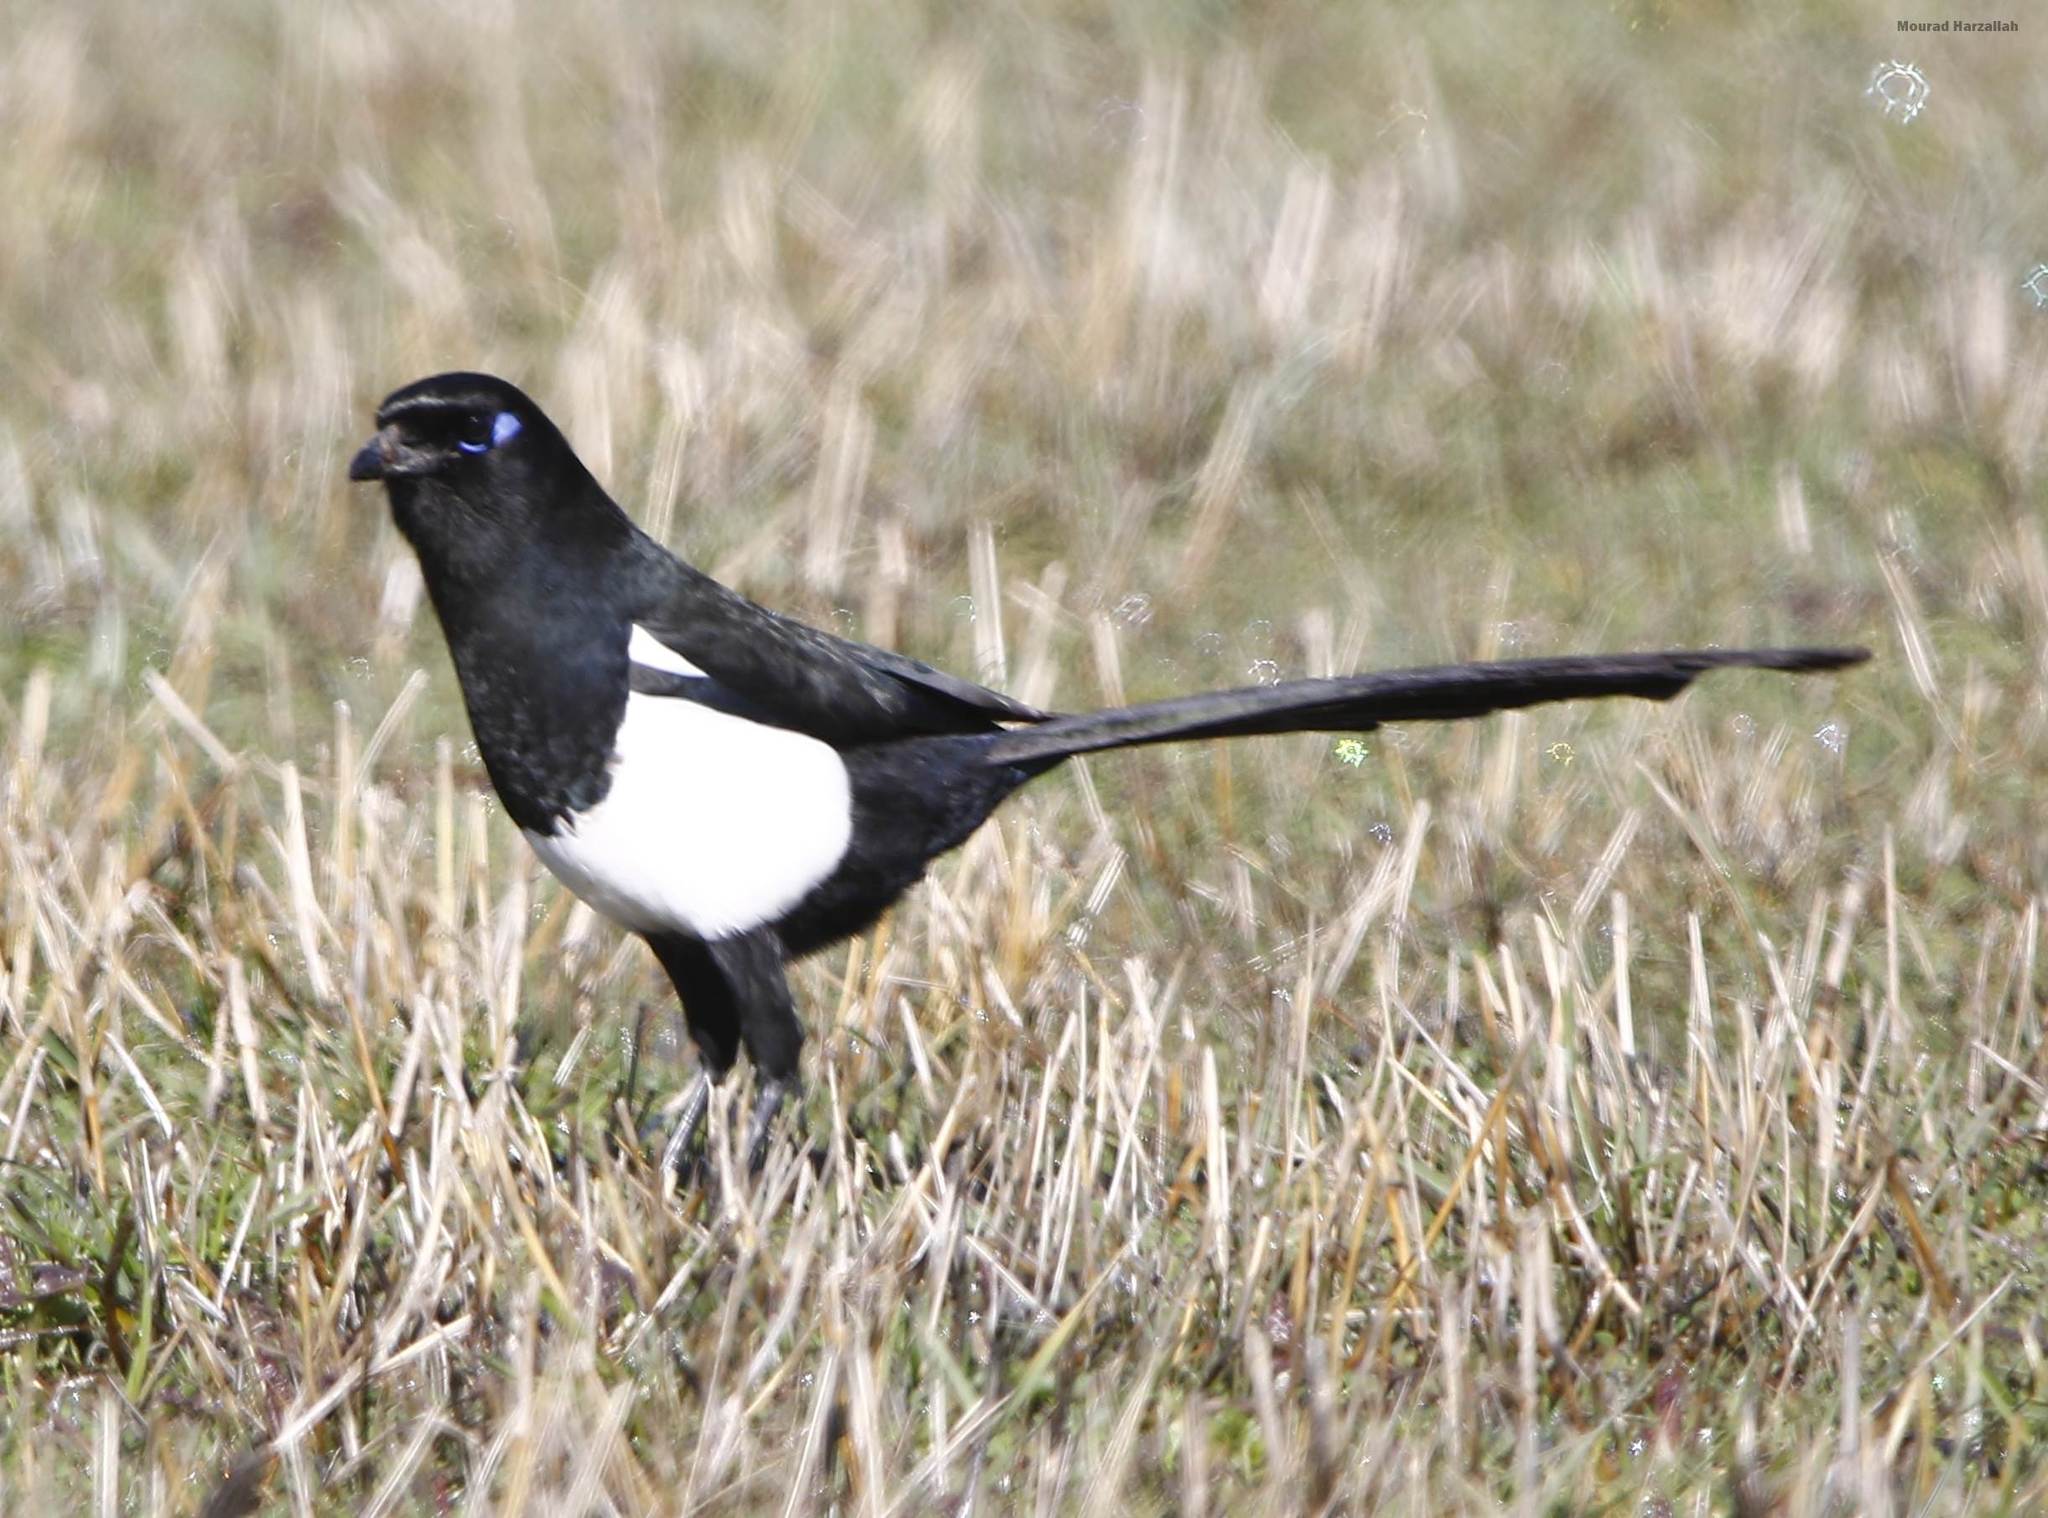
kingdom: Animalia
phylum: Chordata
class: Aves
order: Passeriformes
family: Corvidae
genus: Pica
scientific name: Pica mauritanica
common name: Maghreb magpie
